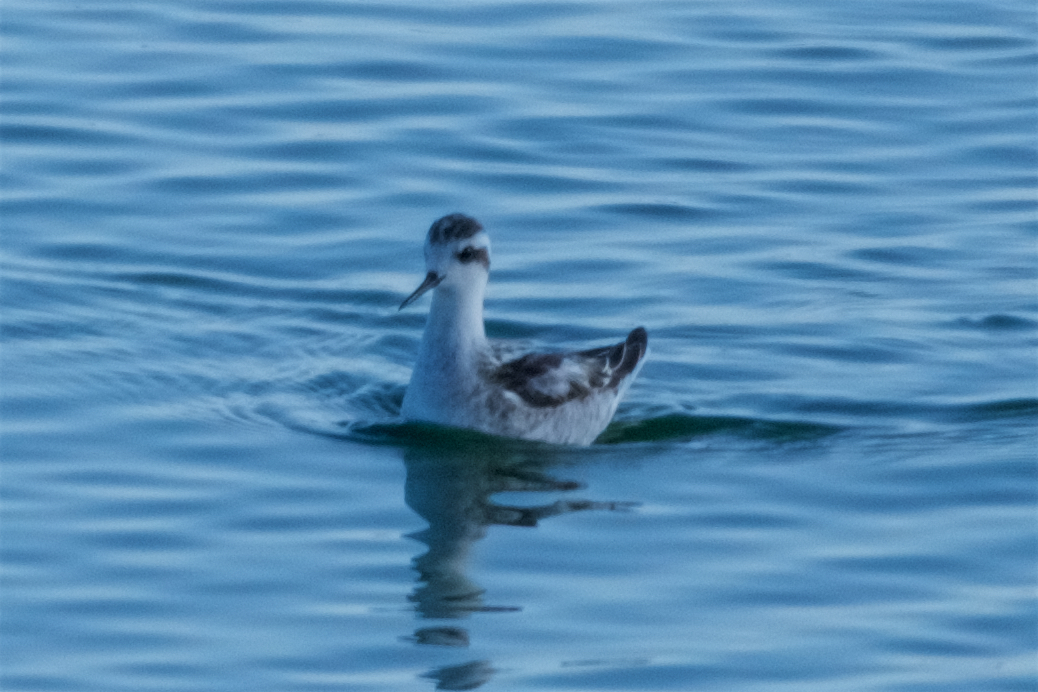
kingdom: Animalia
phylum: Chordata
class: Aves
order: Charadriiformes
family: Scolopacidae
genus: Phalaropus
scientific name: Phalaropus lobatus
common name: Red-necked phalarope
